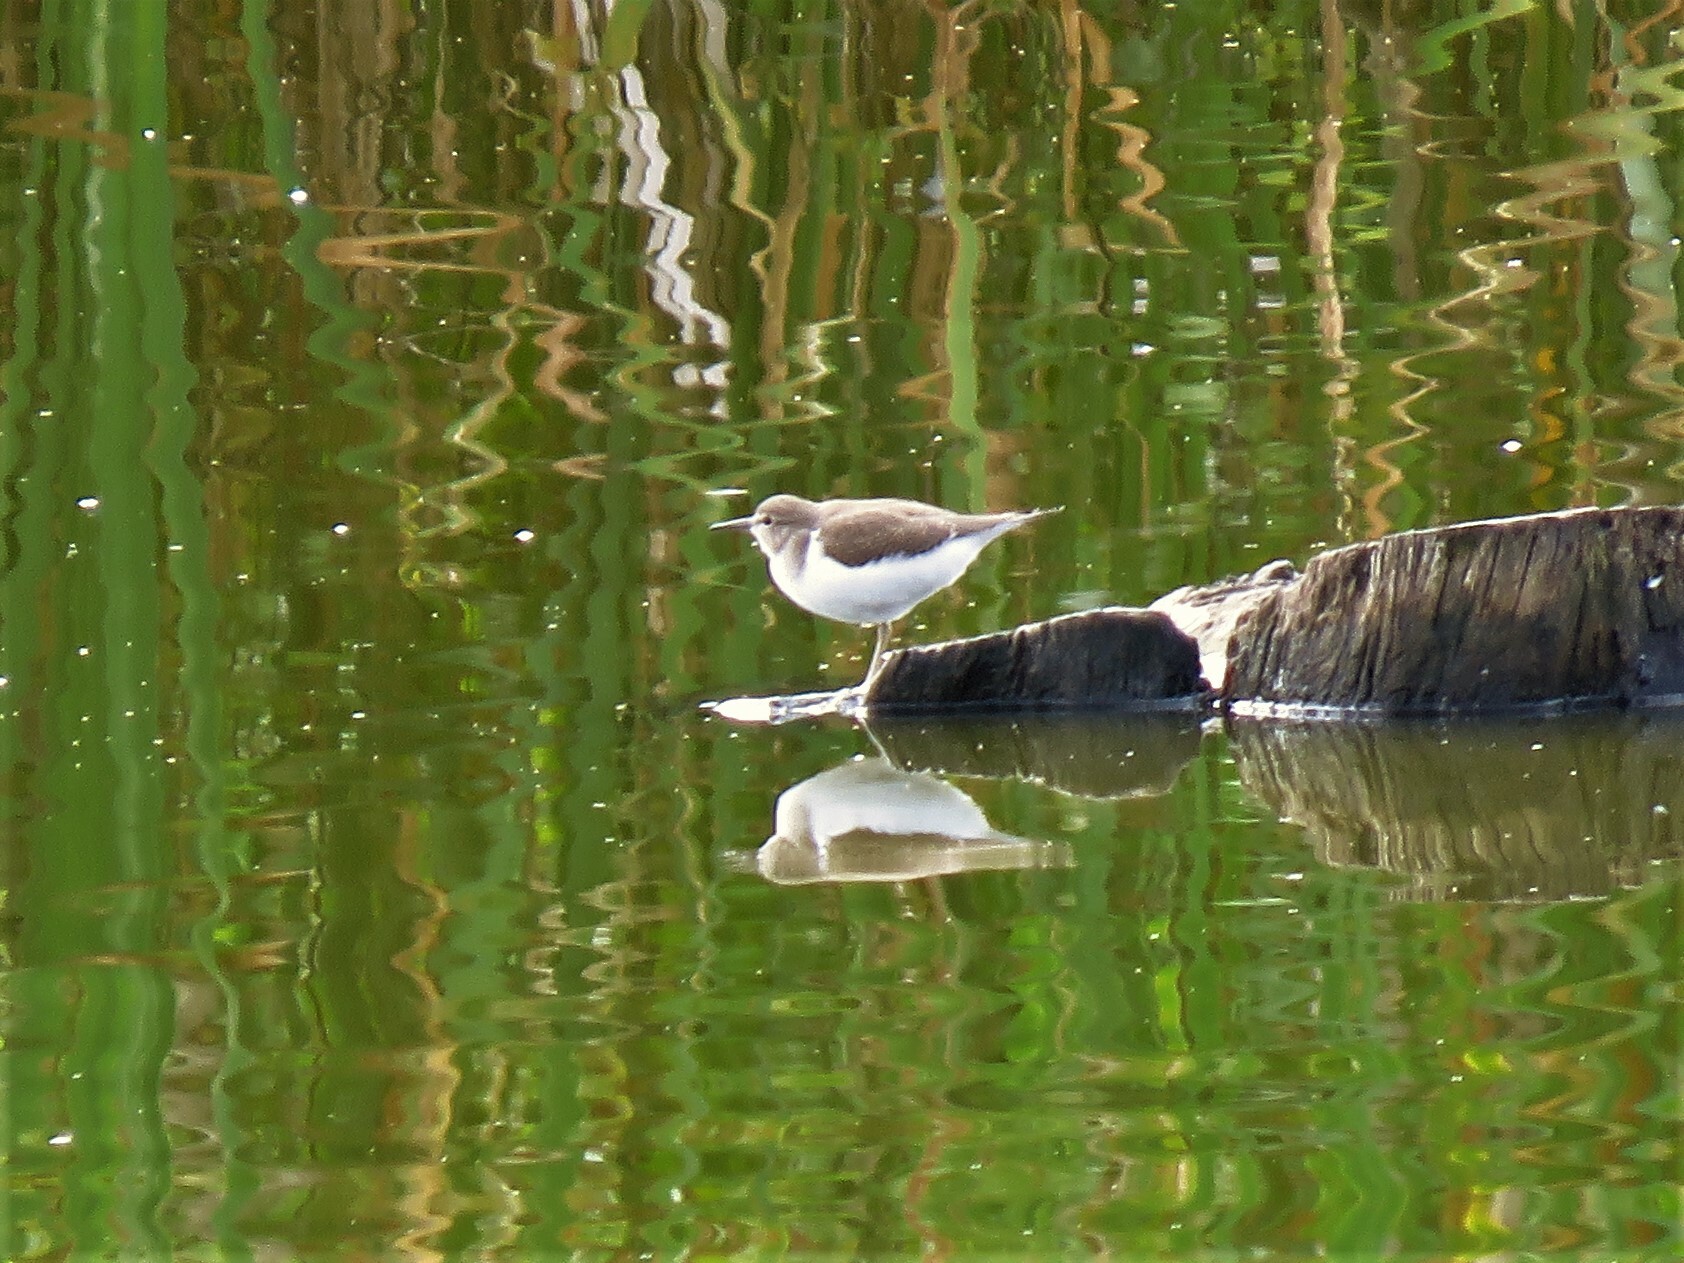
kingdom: Animalia
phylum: Chordata
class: Aves
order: Charadriiformes
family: Scolopacidae
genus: Actitis
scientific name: Actitis hypoleucos
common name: Common sandpiper
